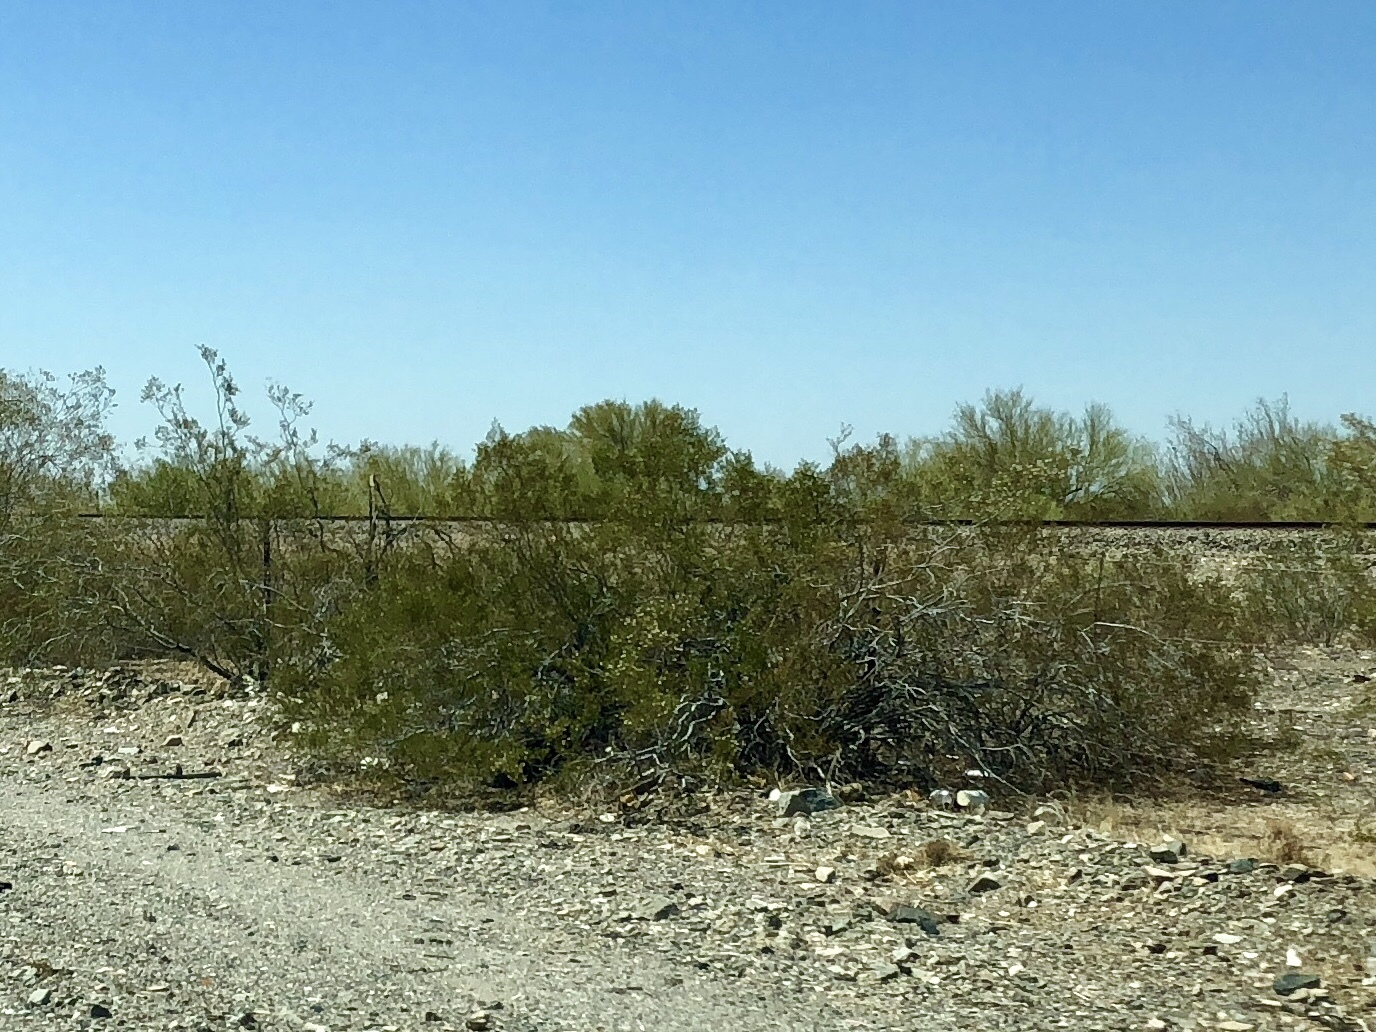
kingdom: Plantae
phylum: Tracheophyta
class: Magnoliopsida
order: Zygophyllales
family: Zygophyllaceae
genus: Larrea
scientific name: Larrea tridentata
